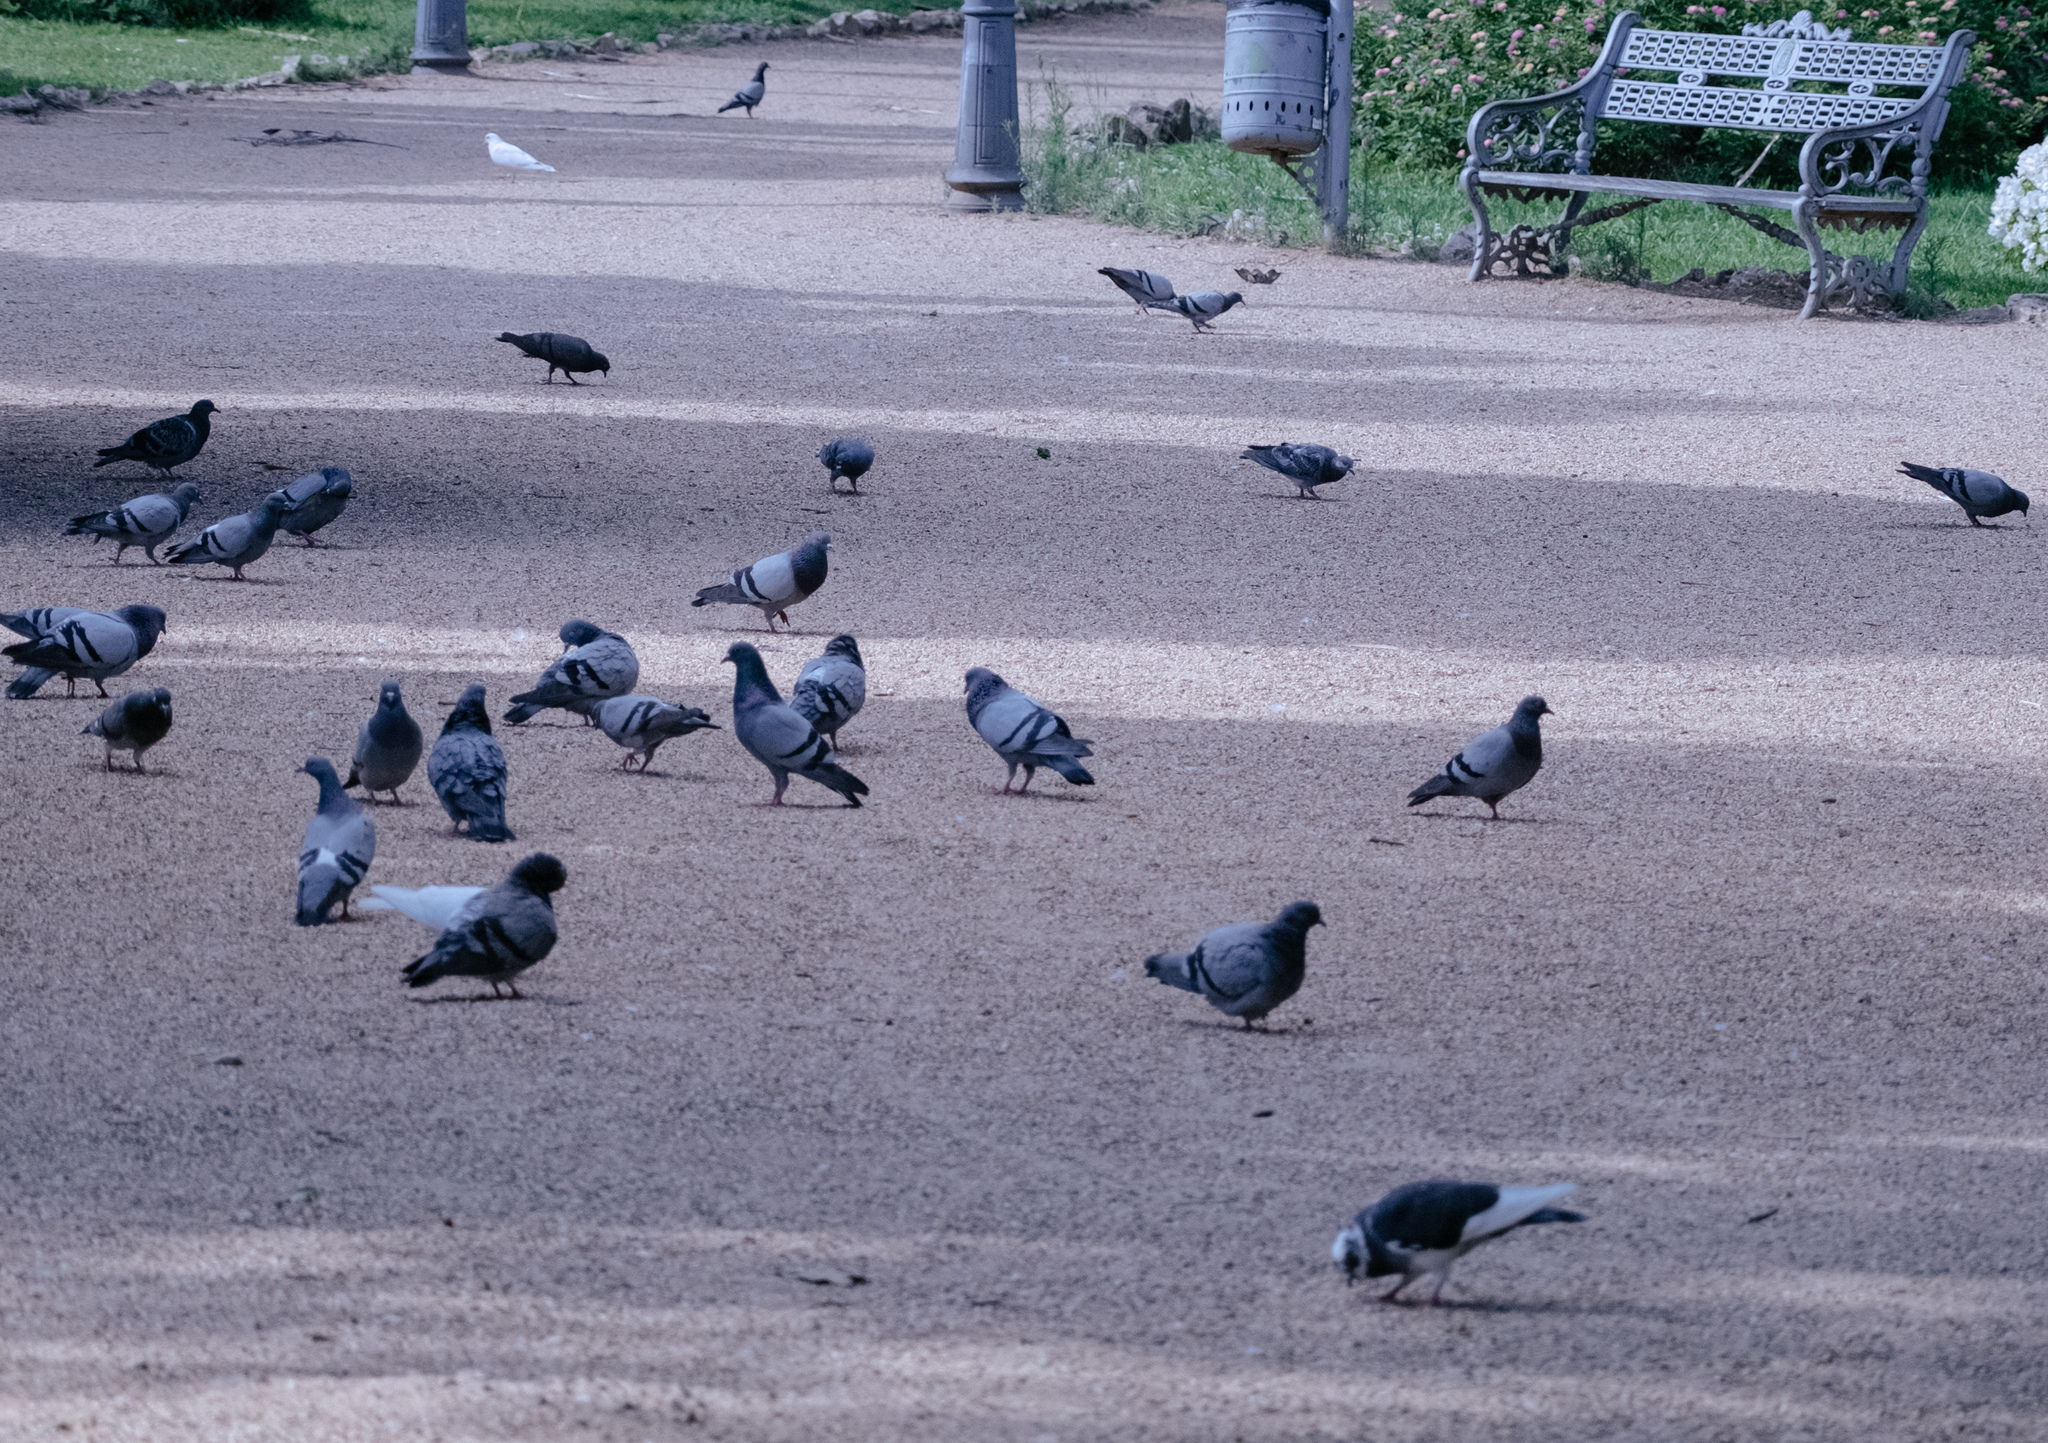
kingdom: Animalia
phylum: Chordata
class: Aves
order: Columbiformes
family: Columbidae
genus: Columba
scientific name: Columba livia
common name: Rock pigeon
